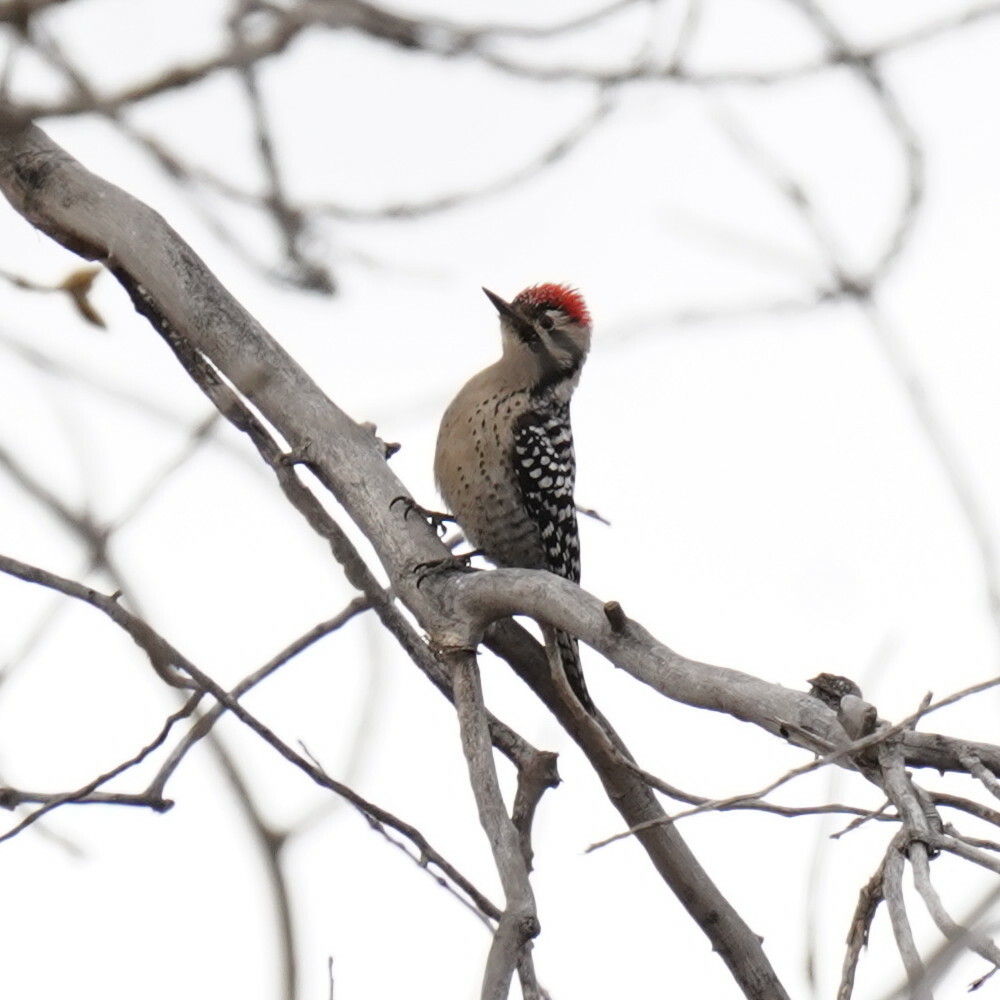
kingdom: Animalia
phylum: Chordata
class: Aves
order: Piciformes
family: Picidae
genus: Dryobates
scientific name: Dryobates scalaris
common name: Ladder-backed woodpecker
